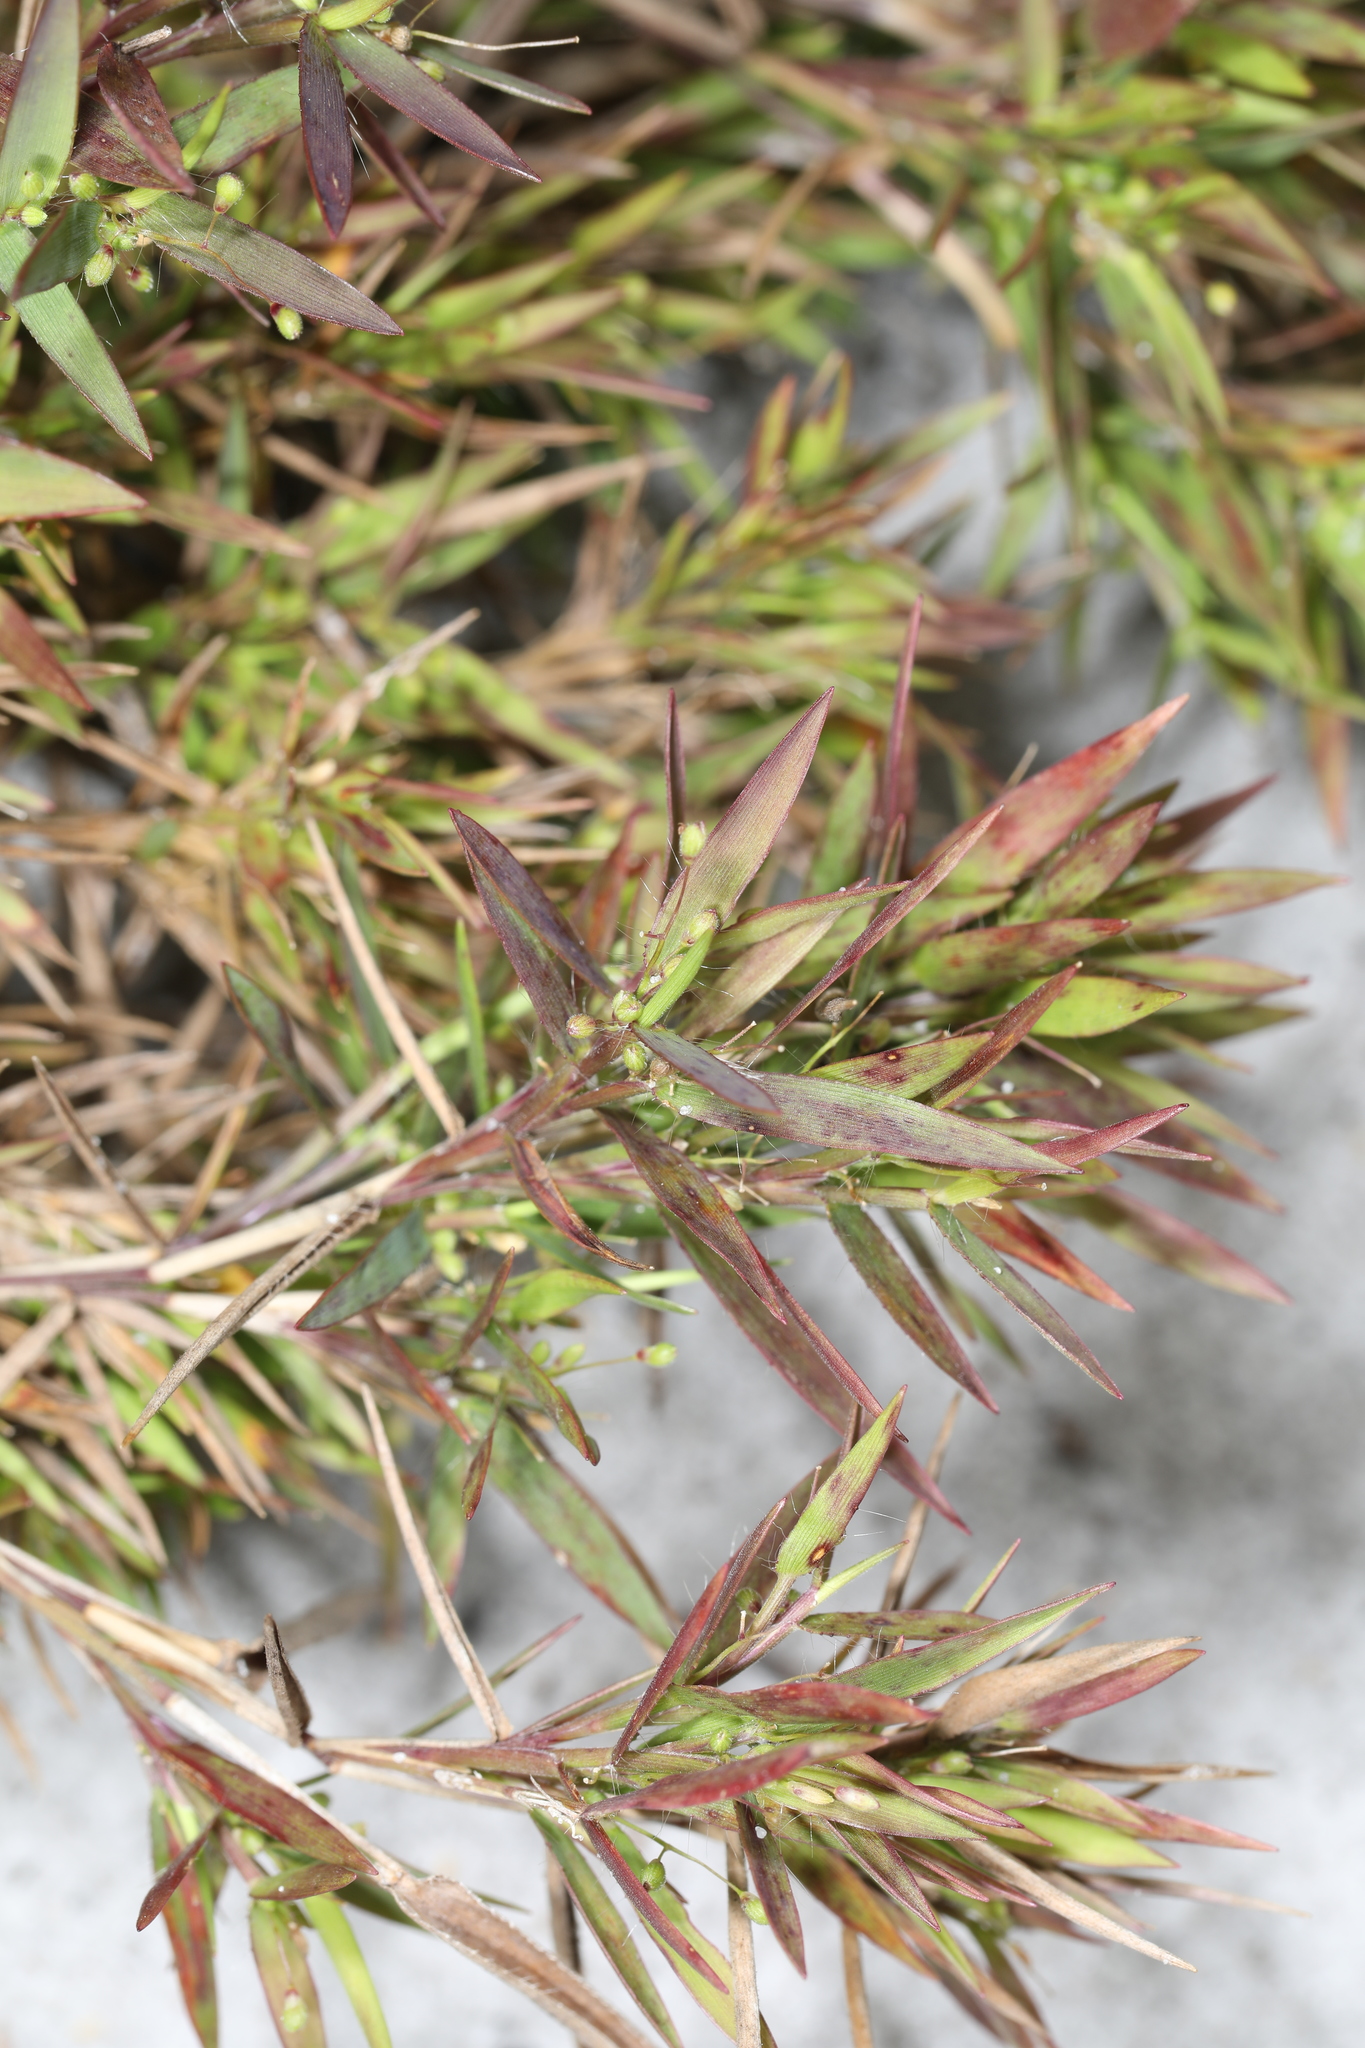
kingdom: Plantae
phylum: Tracheophyta
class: Liliopsida
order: Poales
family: Poaceae
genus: Dichanthelium
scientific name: Dichanthelium portoricense
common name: American panicgrass
